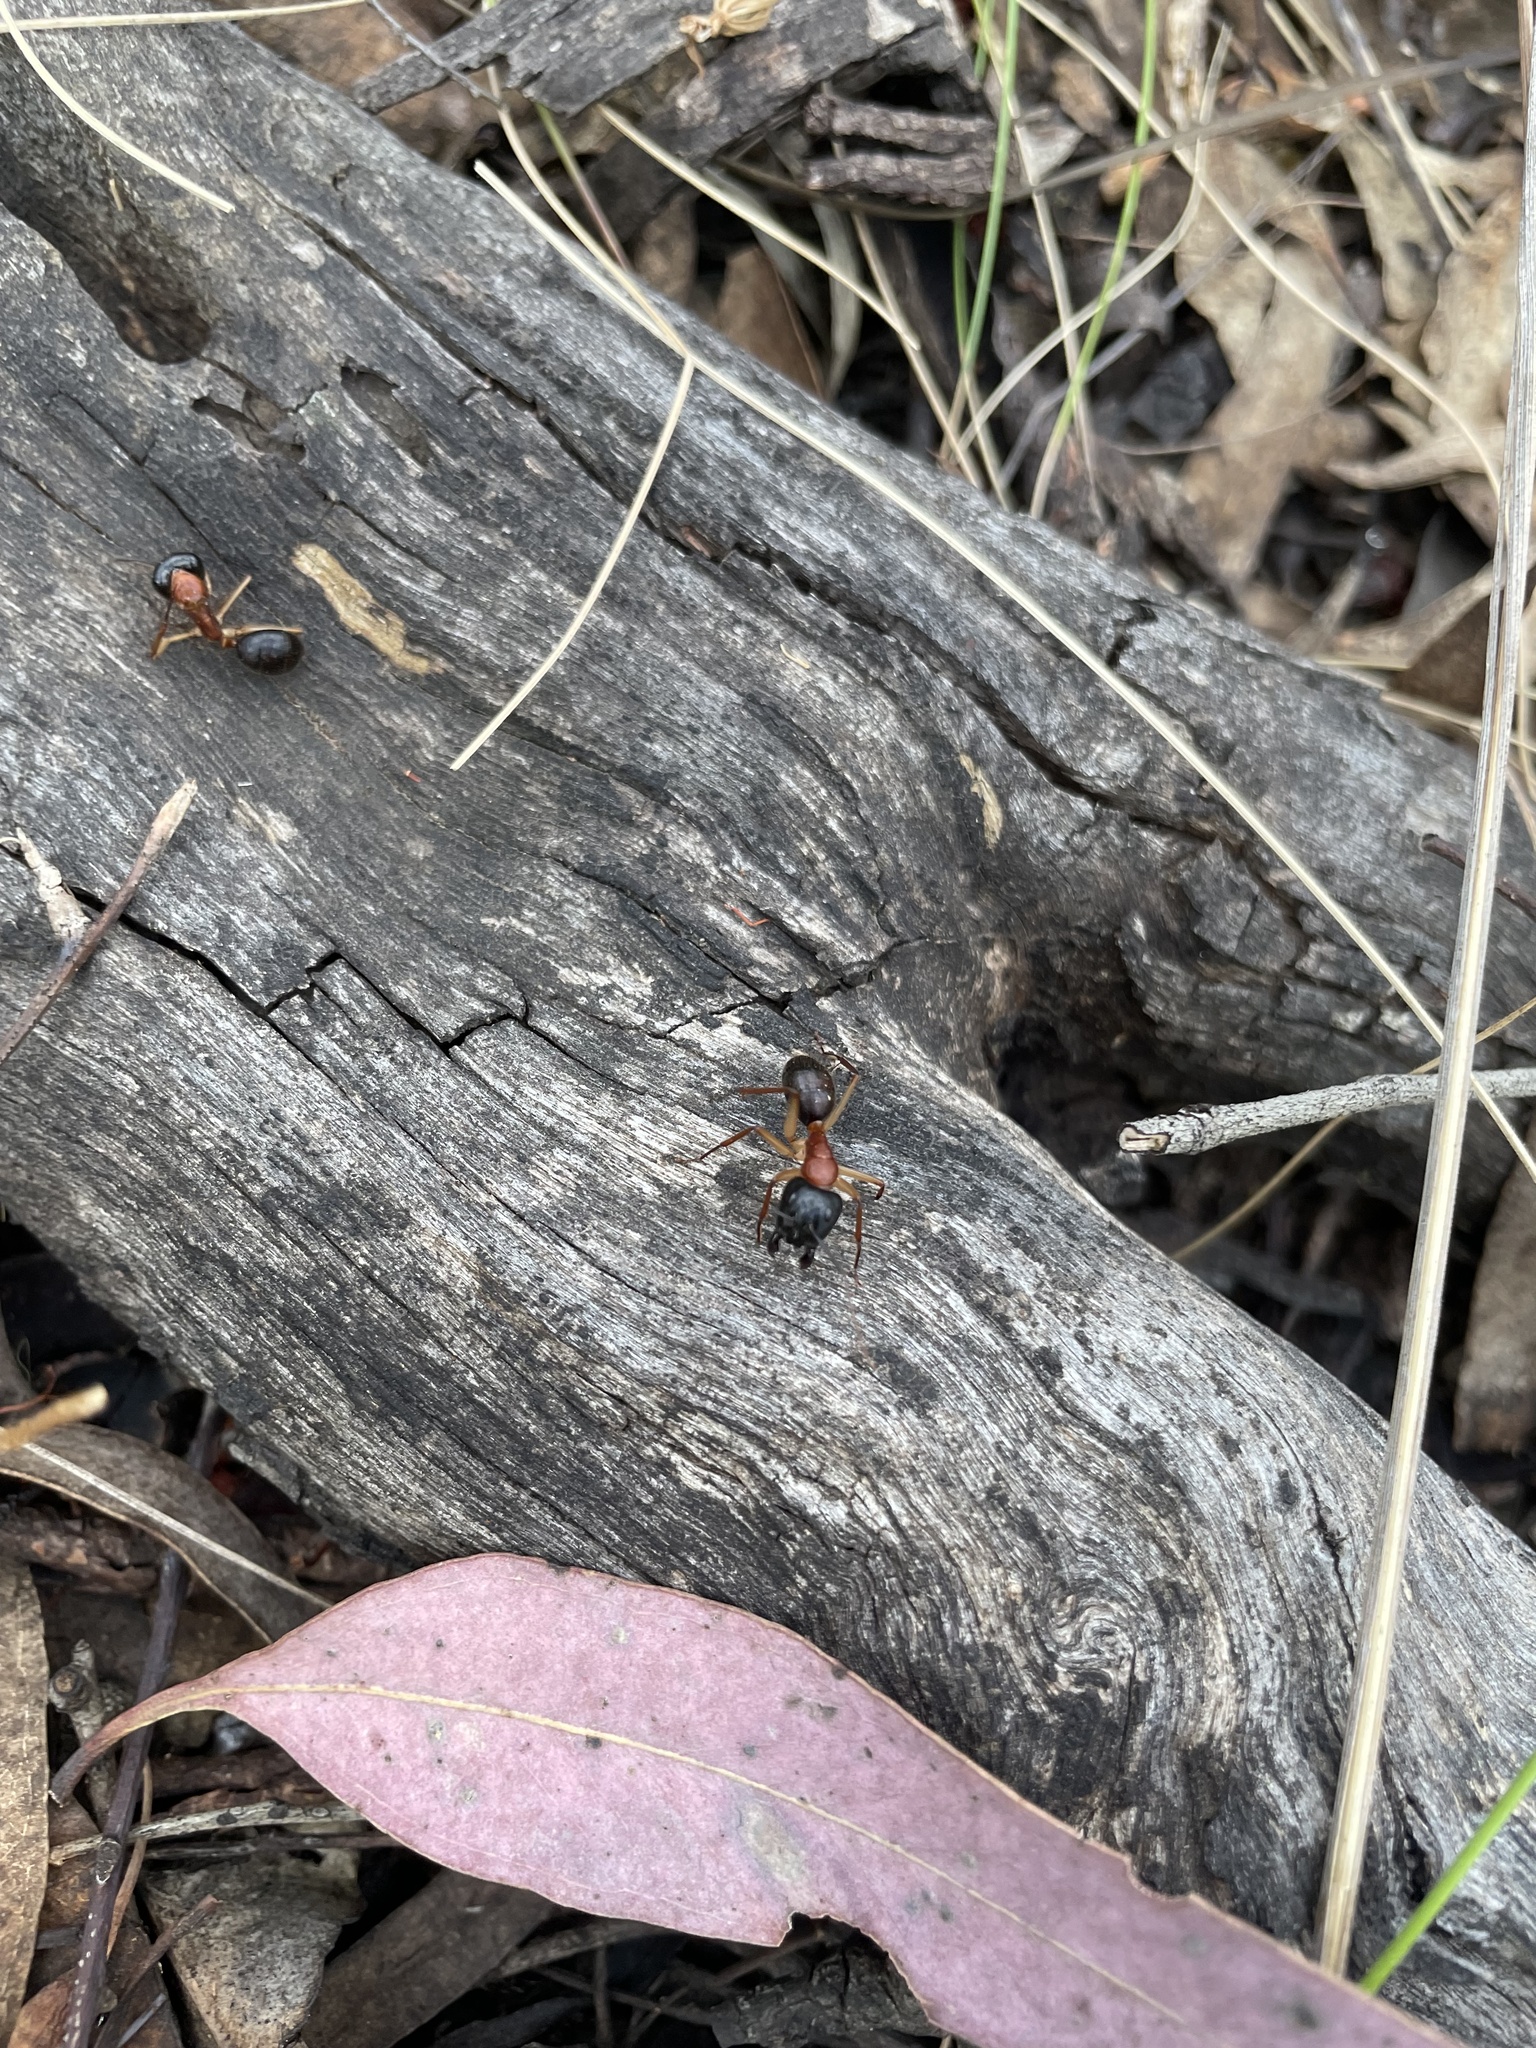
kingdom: Animalia
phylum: Arthropoda
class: Insecta
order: Hymenoptera
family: Formicidae
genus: Camponotus
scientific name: Camponotus nigriceps
